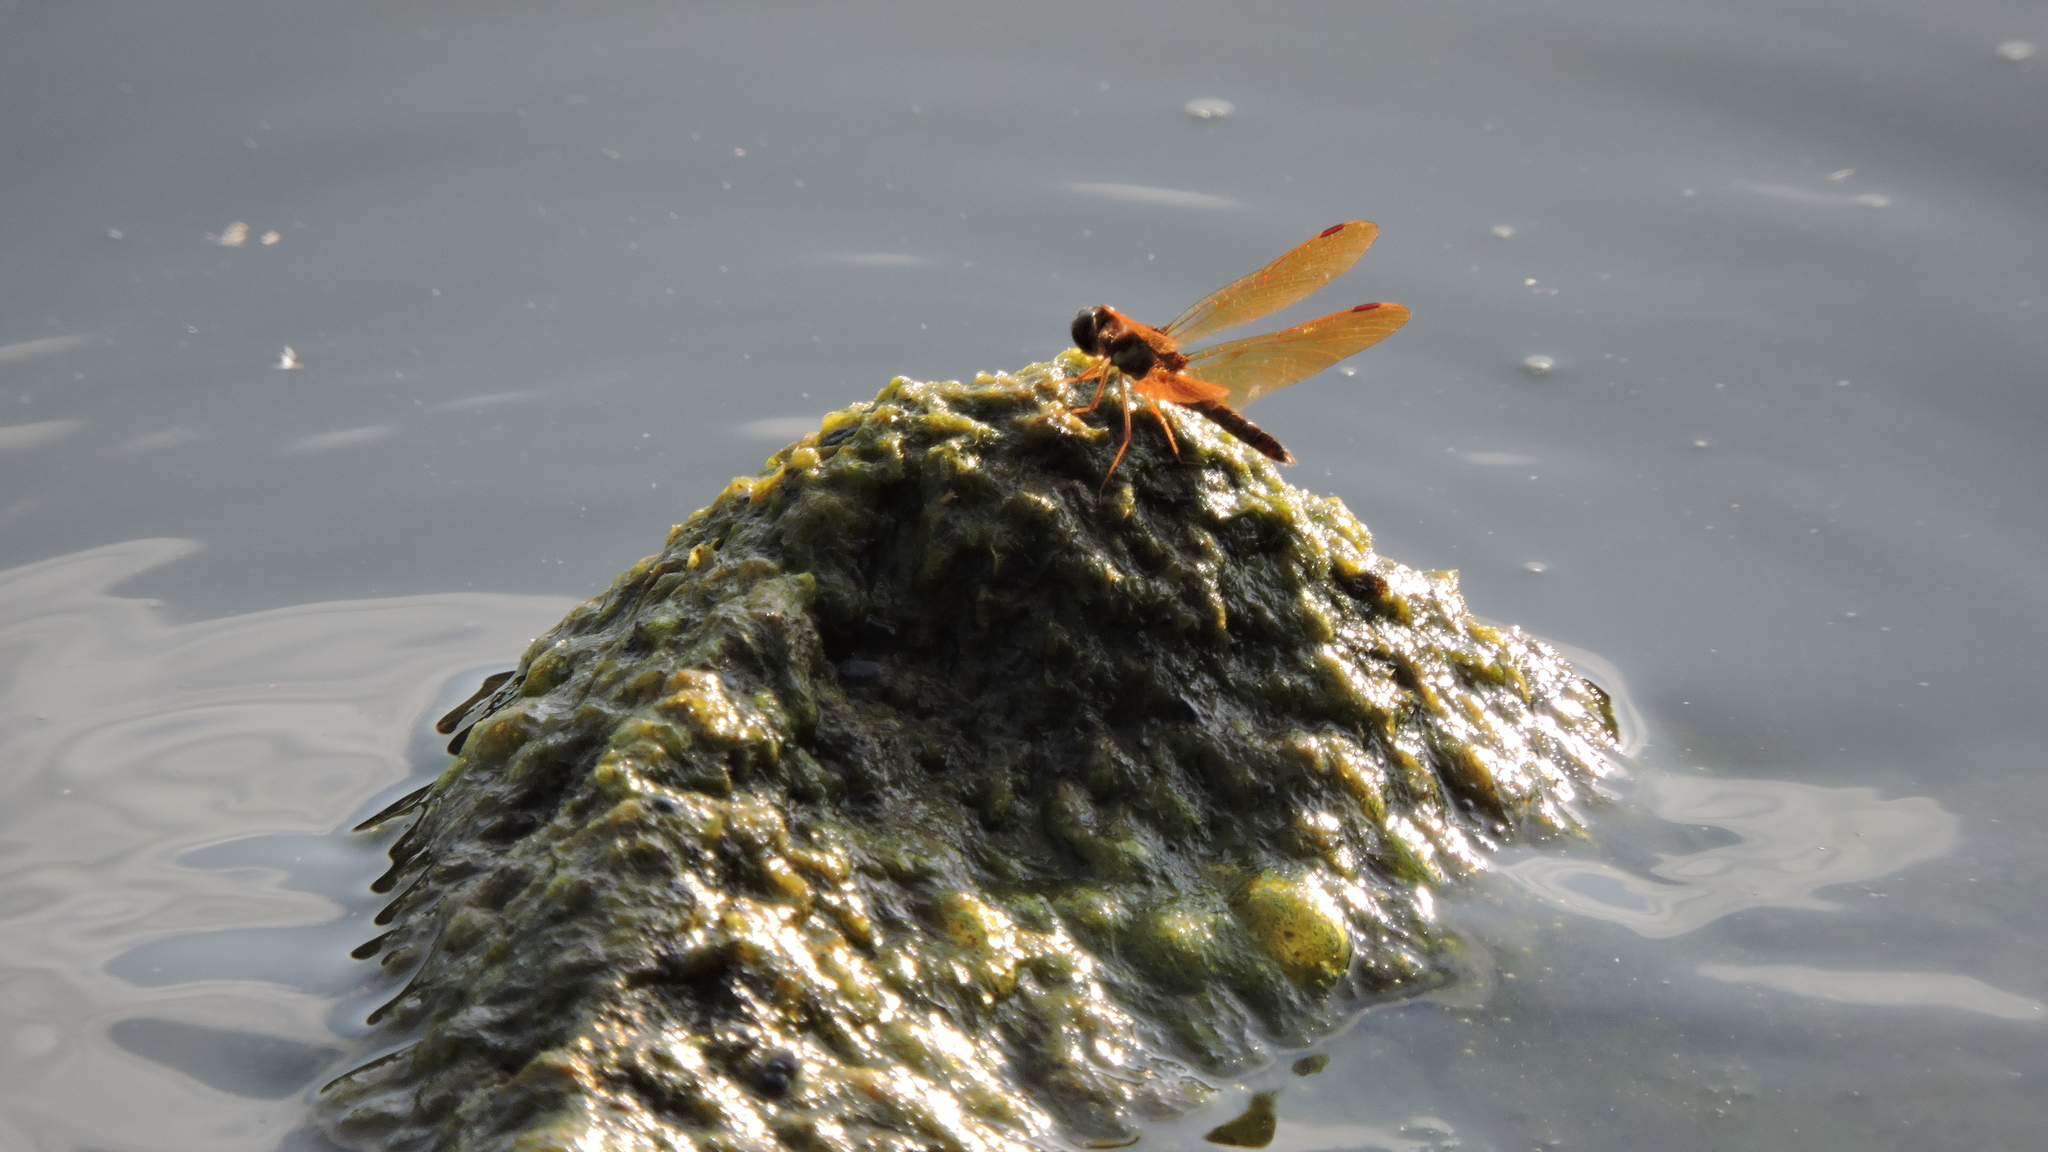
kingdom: Animalia
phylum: Arthropoda
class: Insecta
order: Odonata
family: Libellulidae
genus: Perithemis
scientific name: Perithemis tenera
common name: Eastern amberwing
